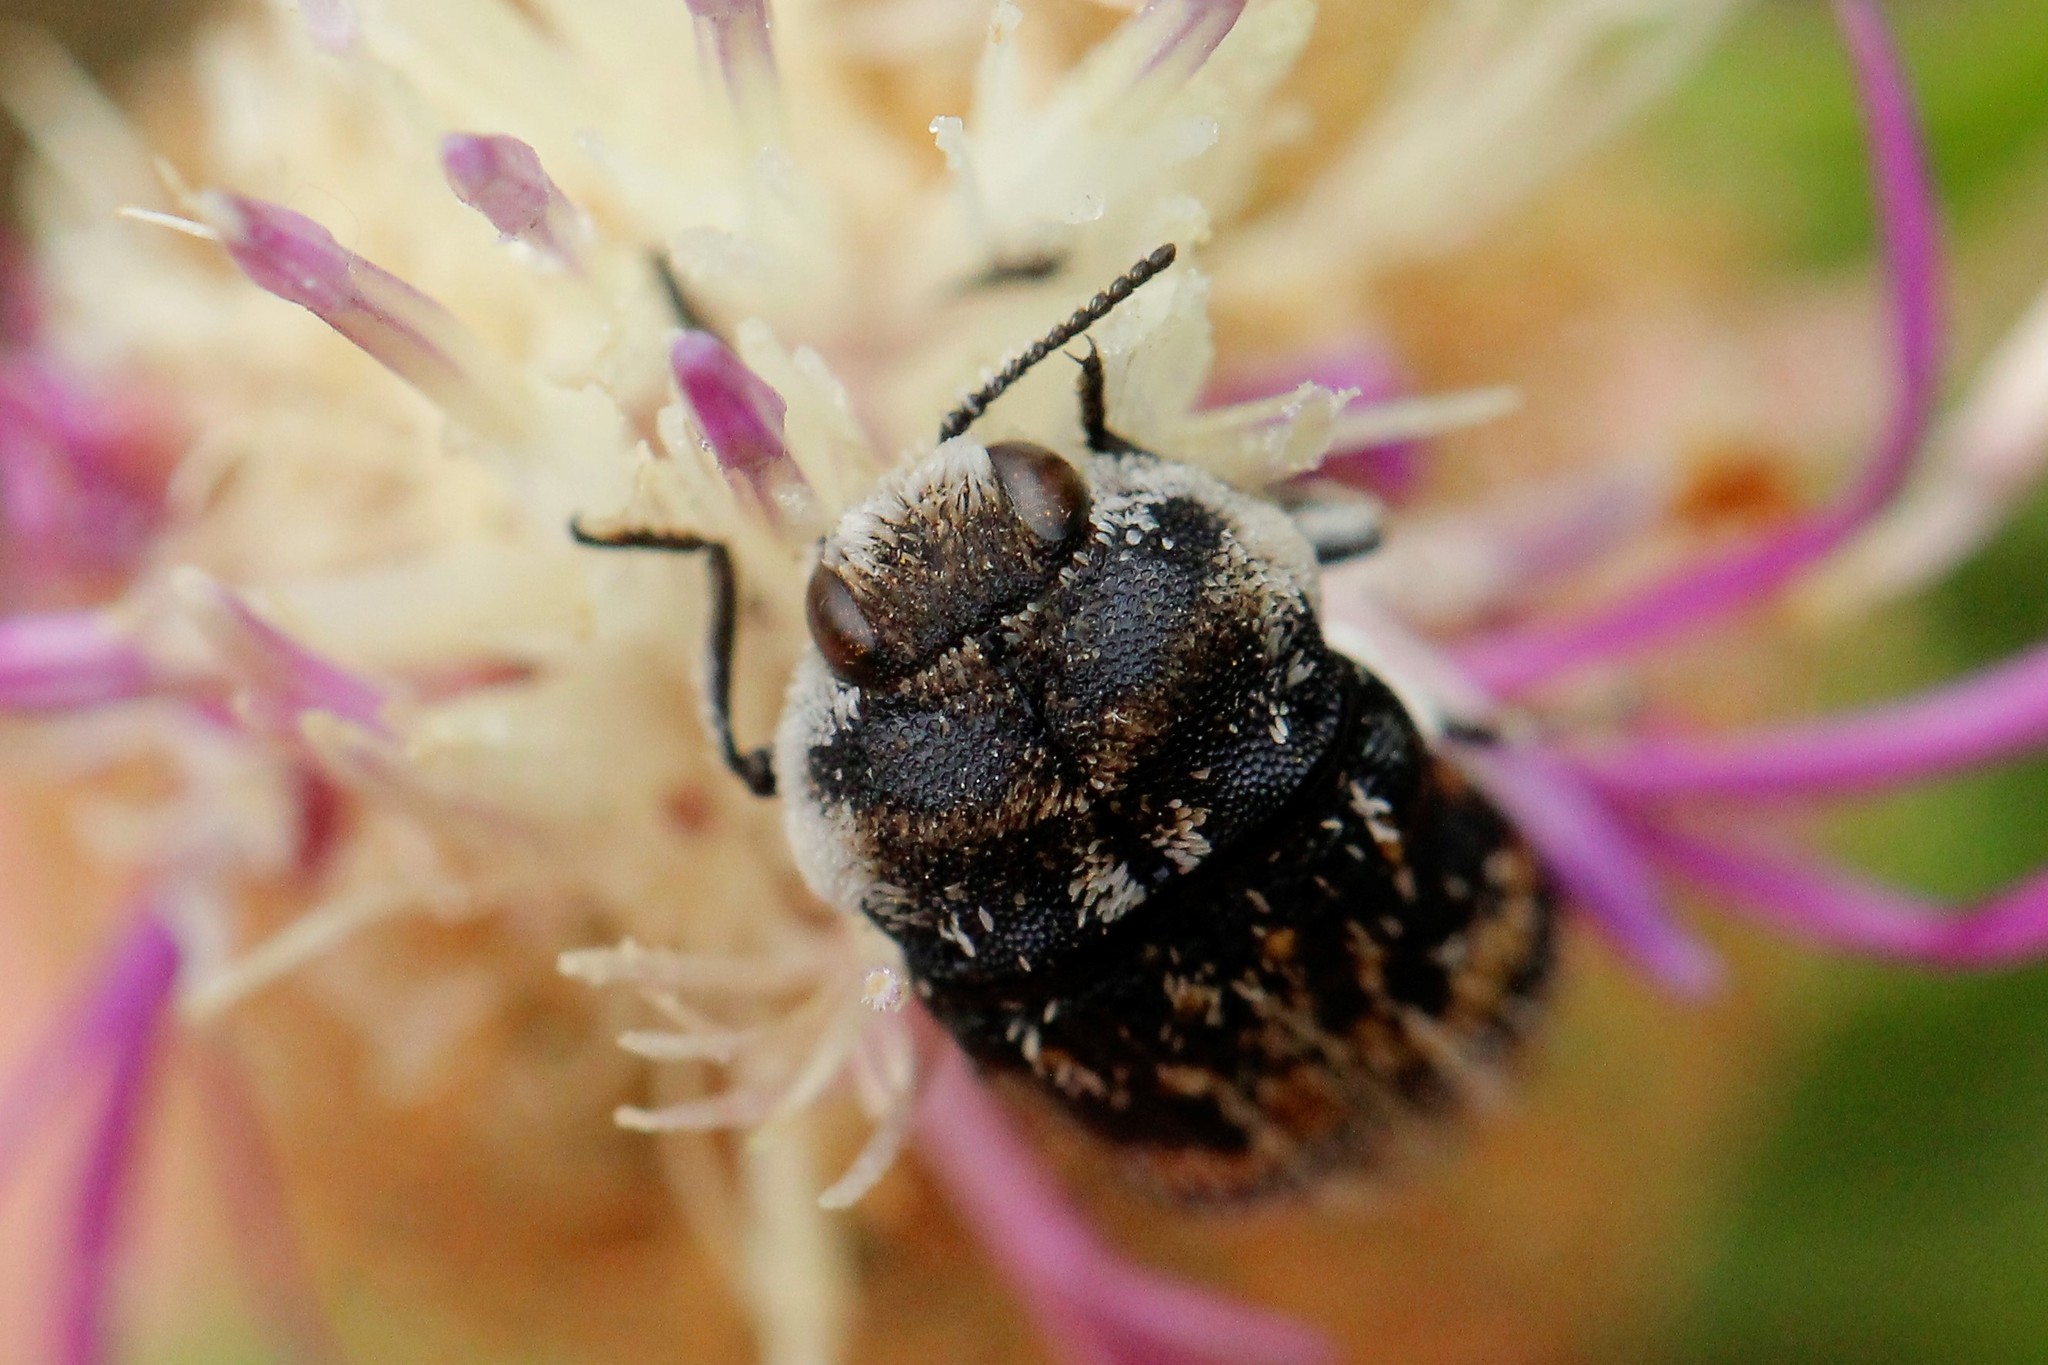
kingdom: Animalia
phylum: Arthropoda
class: Insecta
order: Coleoptera
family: Buprestidae
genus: Acmaeoderella
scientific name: Acmaeoderella mimonti
